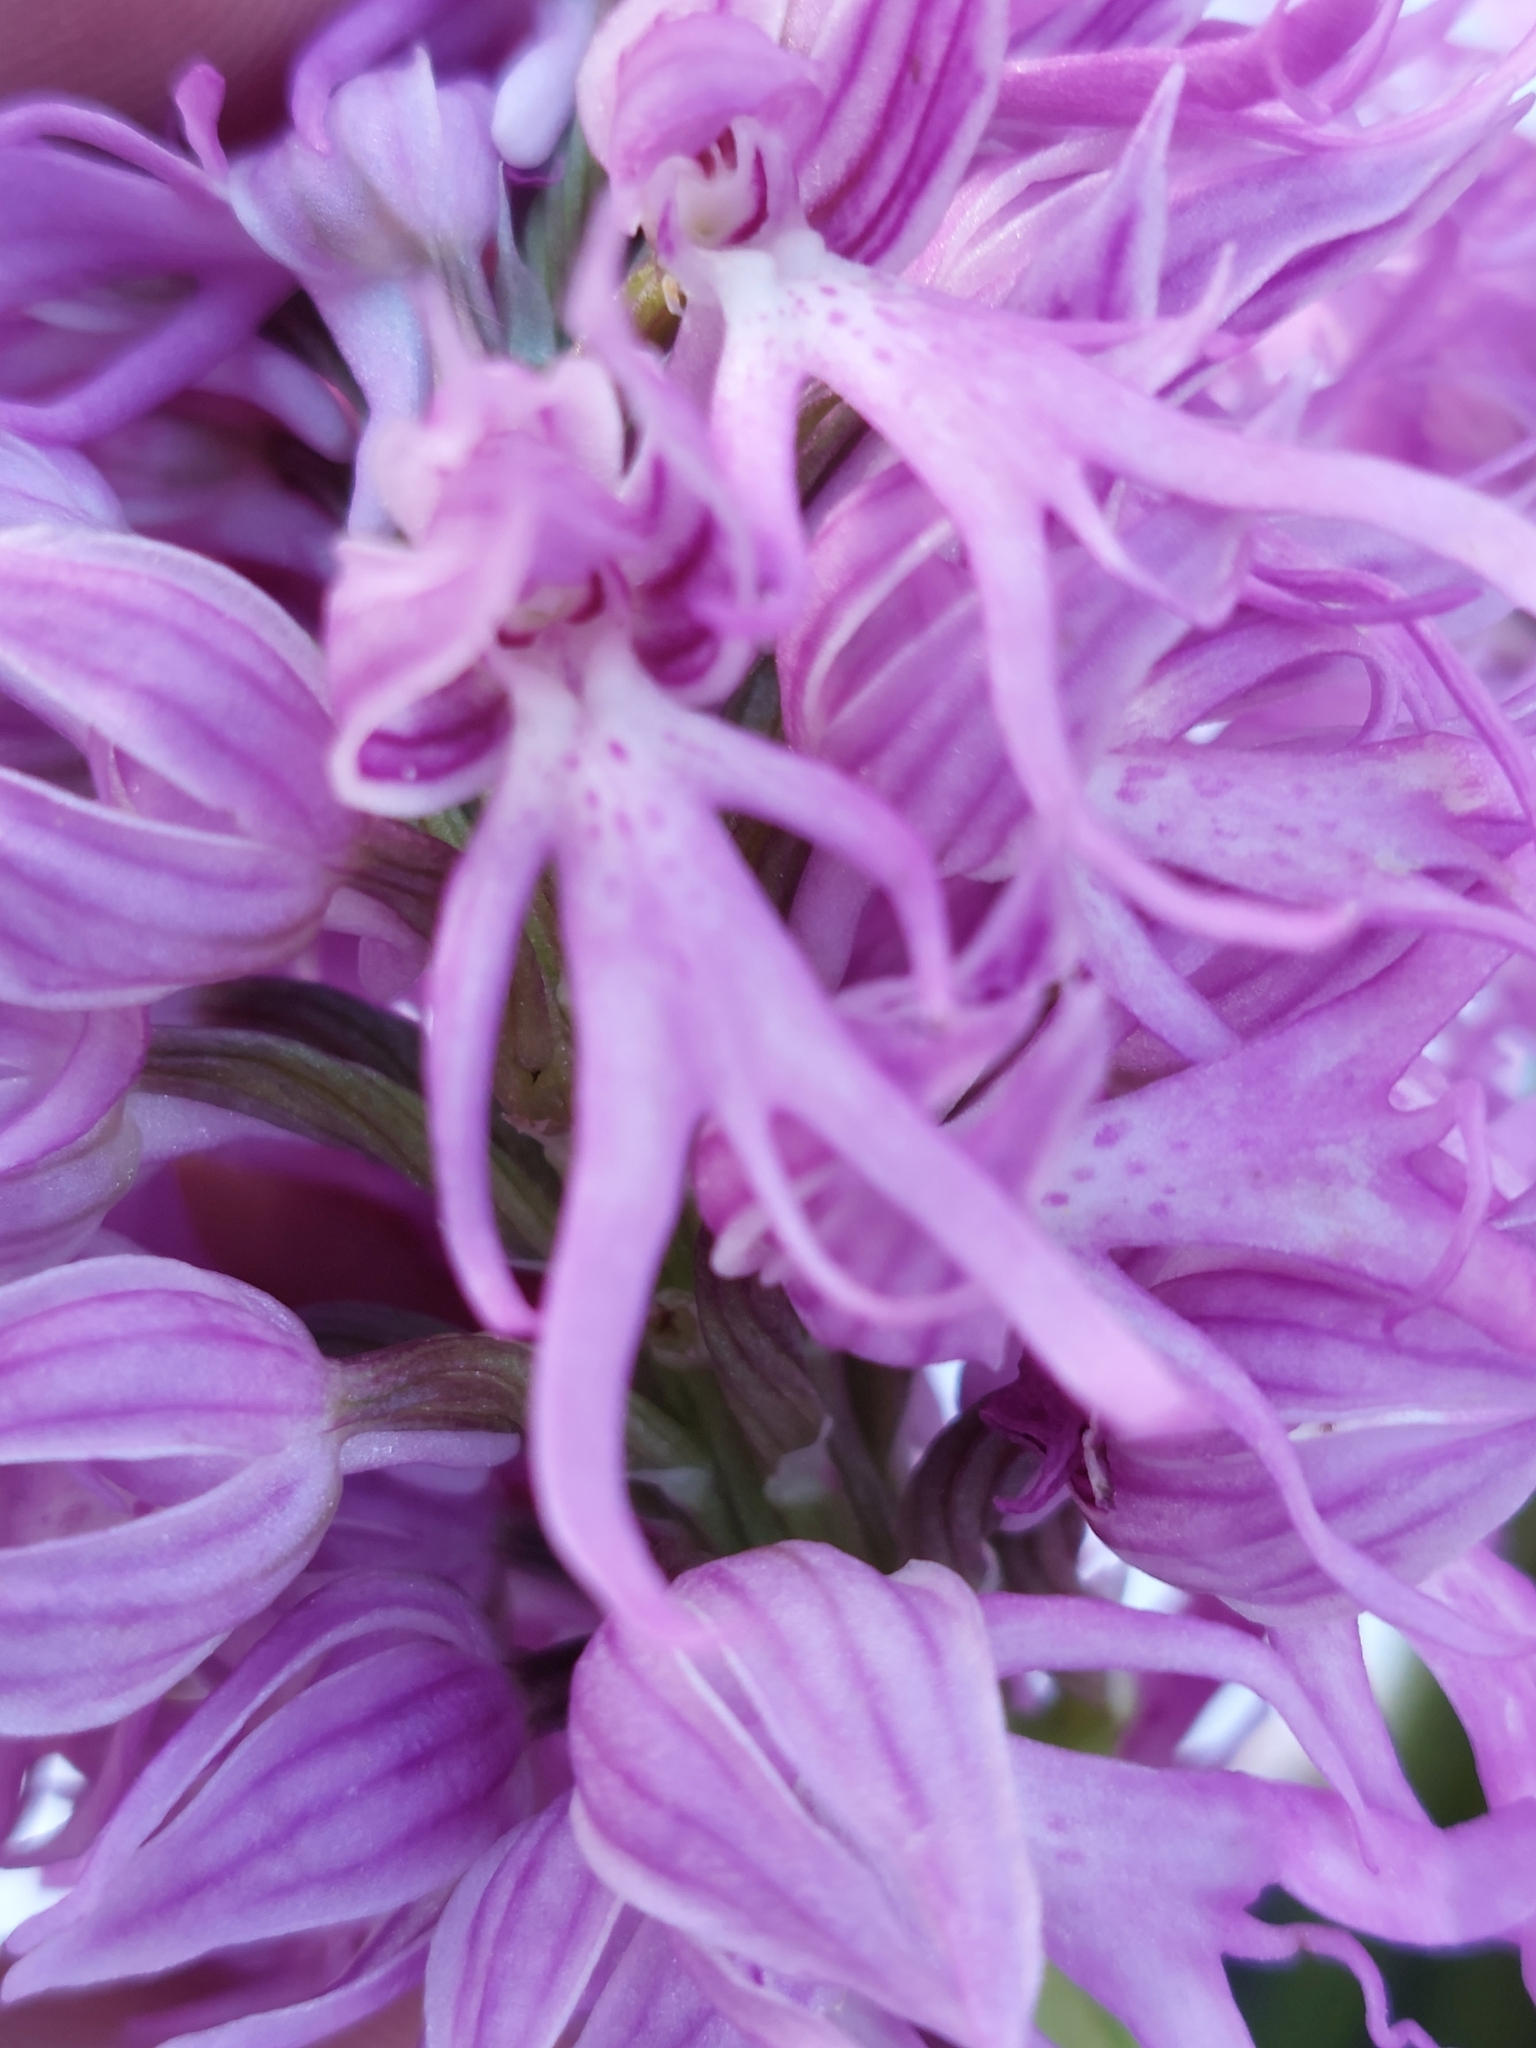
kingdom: Plantae
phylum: Tracheophyta
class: Liliopsida
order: Asparagales
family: Orchidaceae
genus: Orchis
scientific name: Orchis italica
